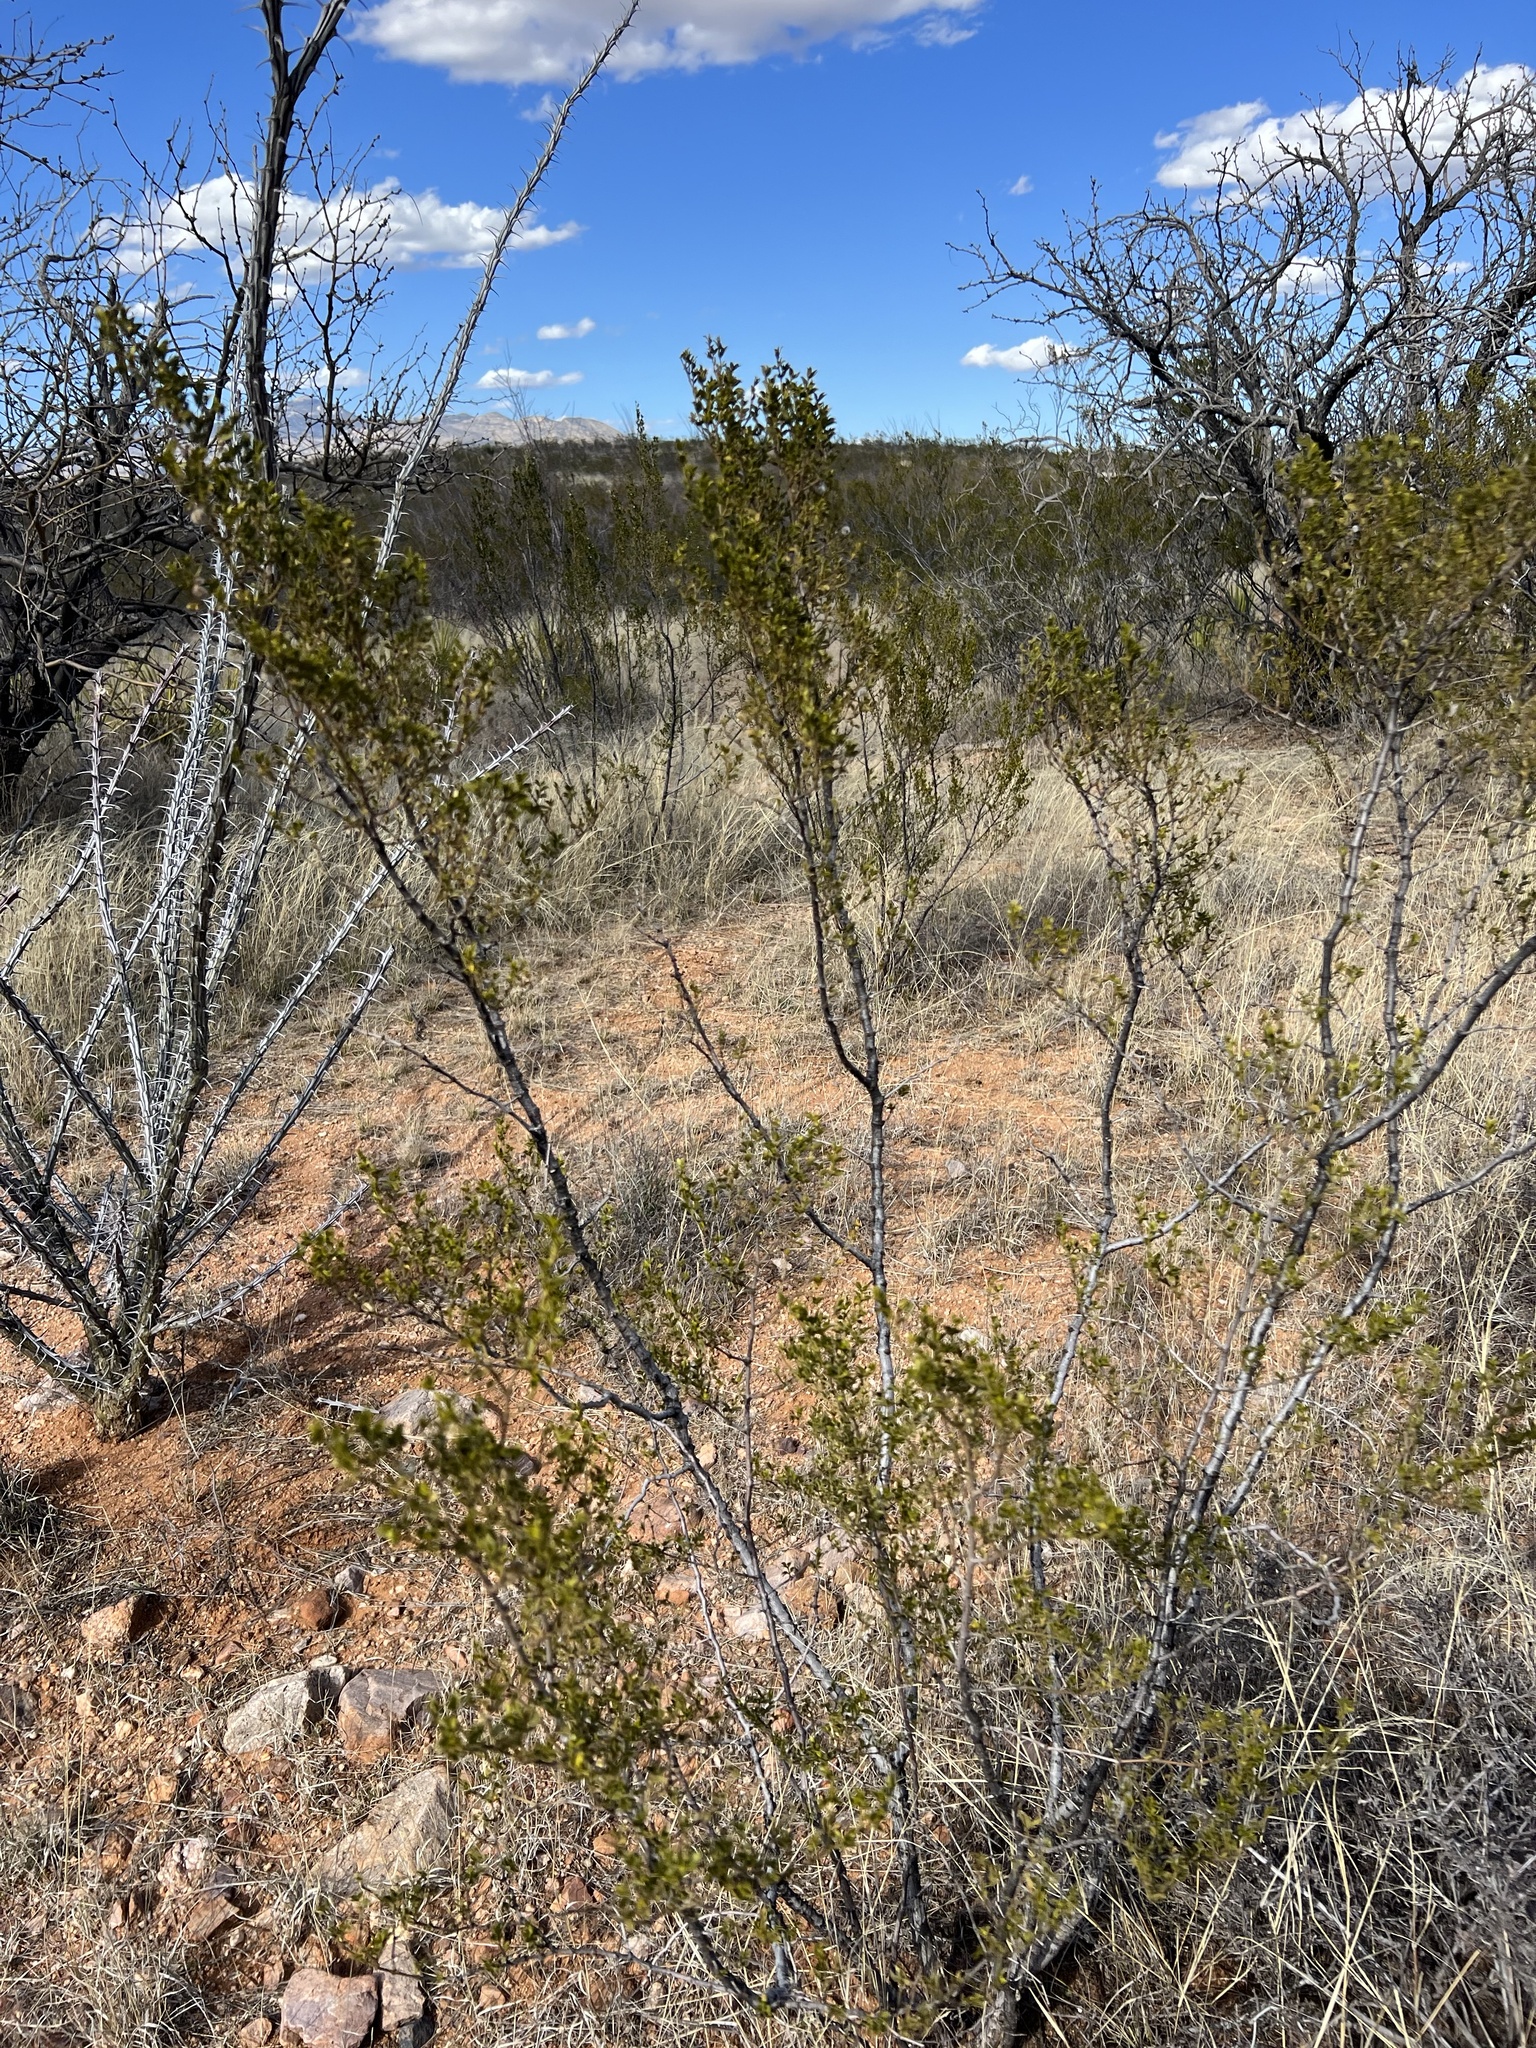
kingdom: Plantae
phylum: Tracheophyta
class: Magnoliopsida
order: Zygophyllales
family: Zygophyllaceae
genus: Larrea
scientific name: Larrea tridentata
